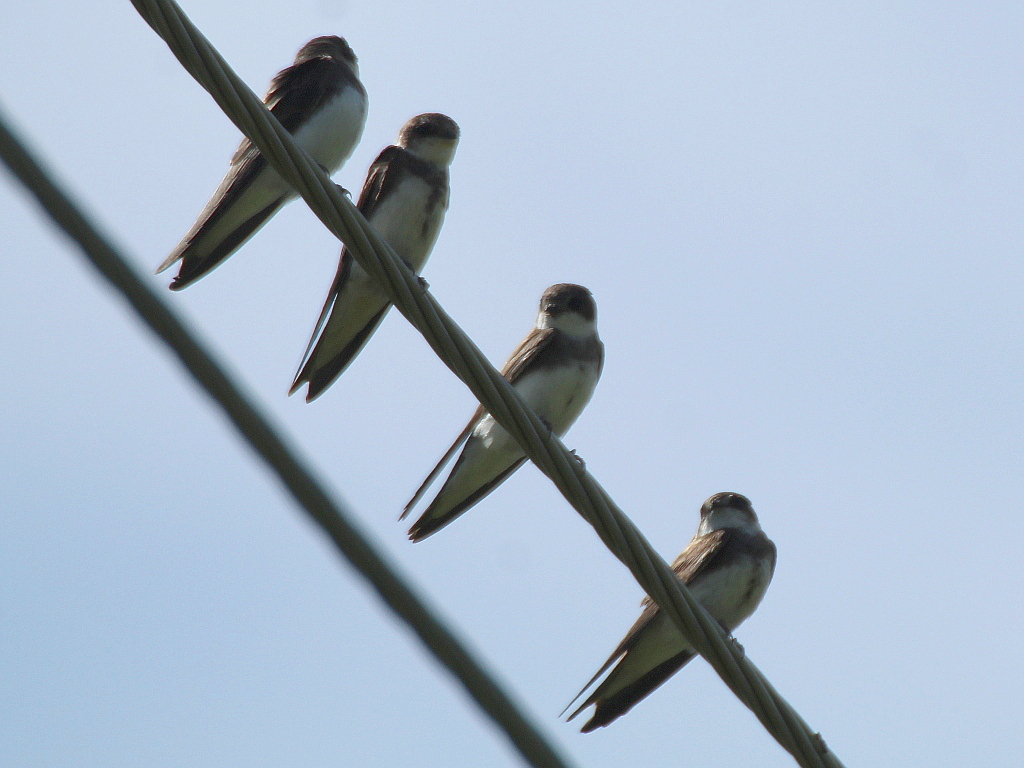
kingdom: Animalia
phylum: Chordata
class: Aves
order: Passeriformes
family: Hirundinidae
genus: Riparia
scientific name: Riparia riparia
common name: Sand martin
